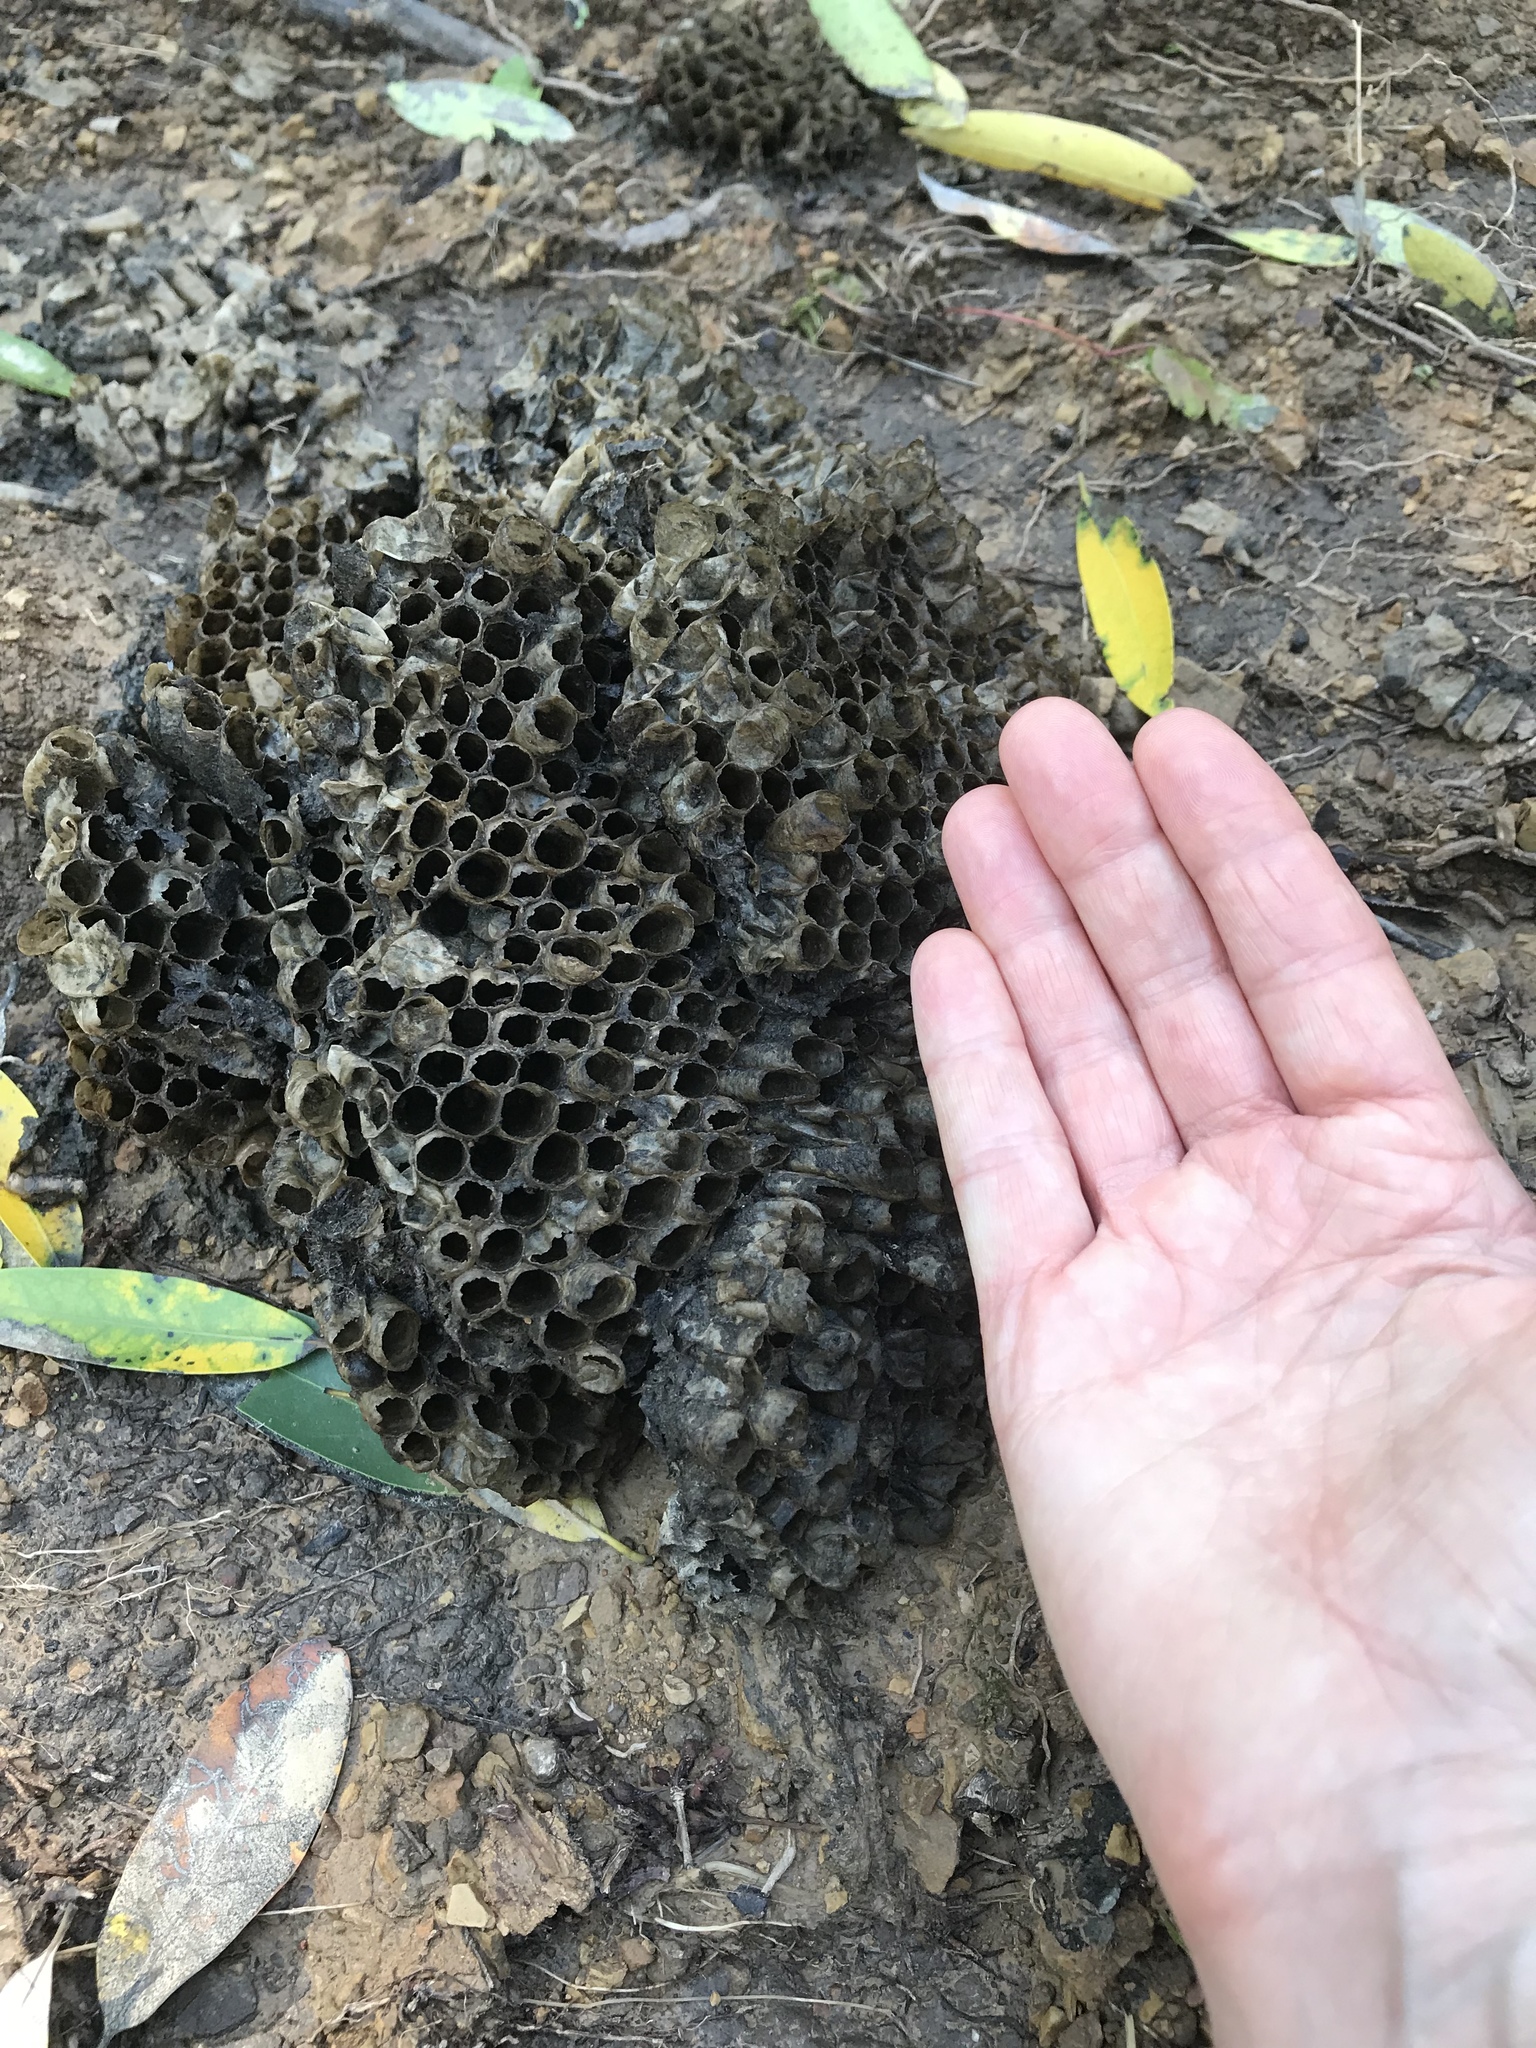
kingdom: Animalia
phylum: Arthropoda
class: Insecta
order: Hymenoptera
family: Vespidae
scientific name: Vespidae
